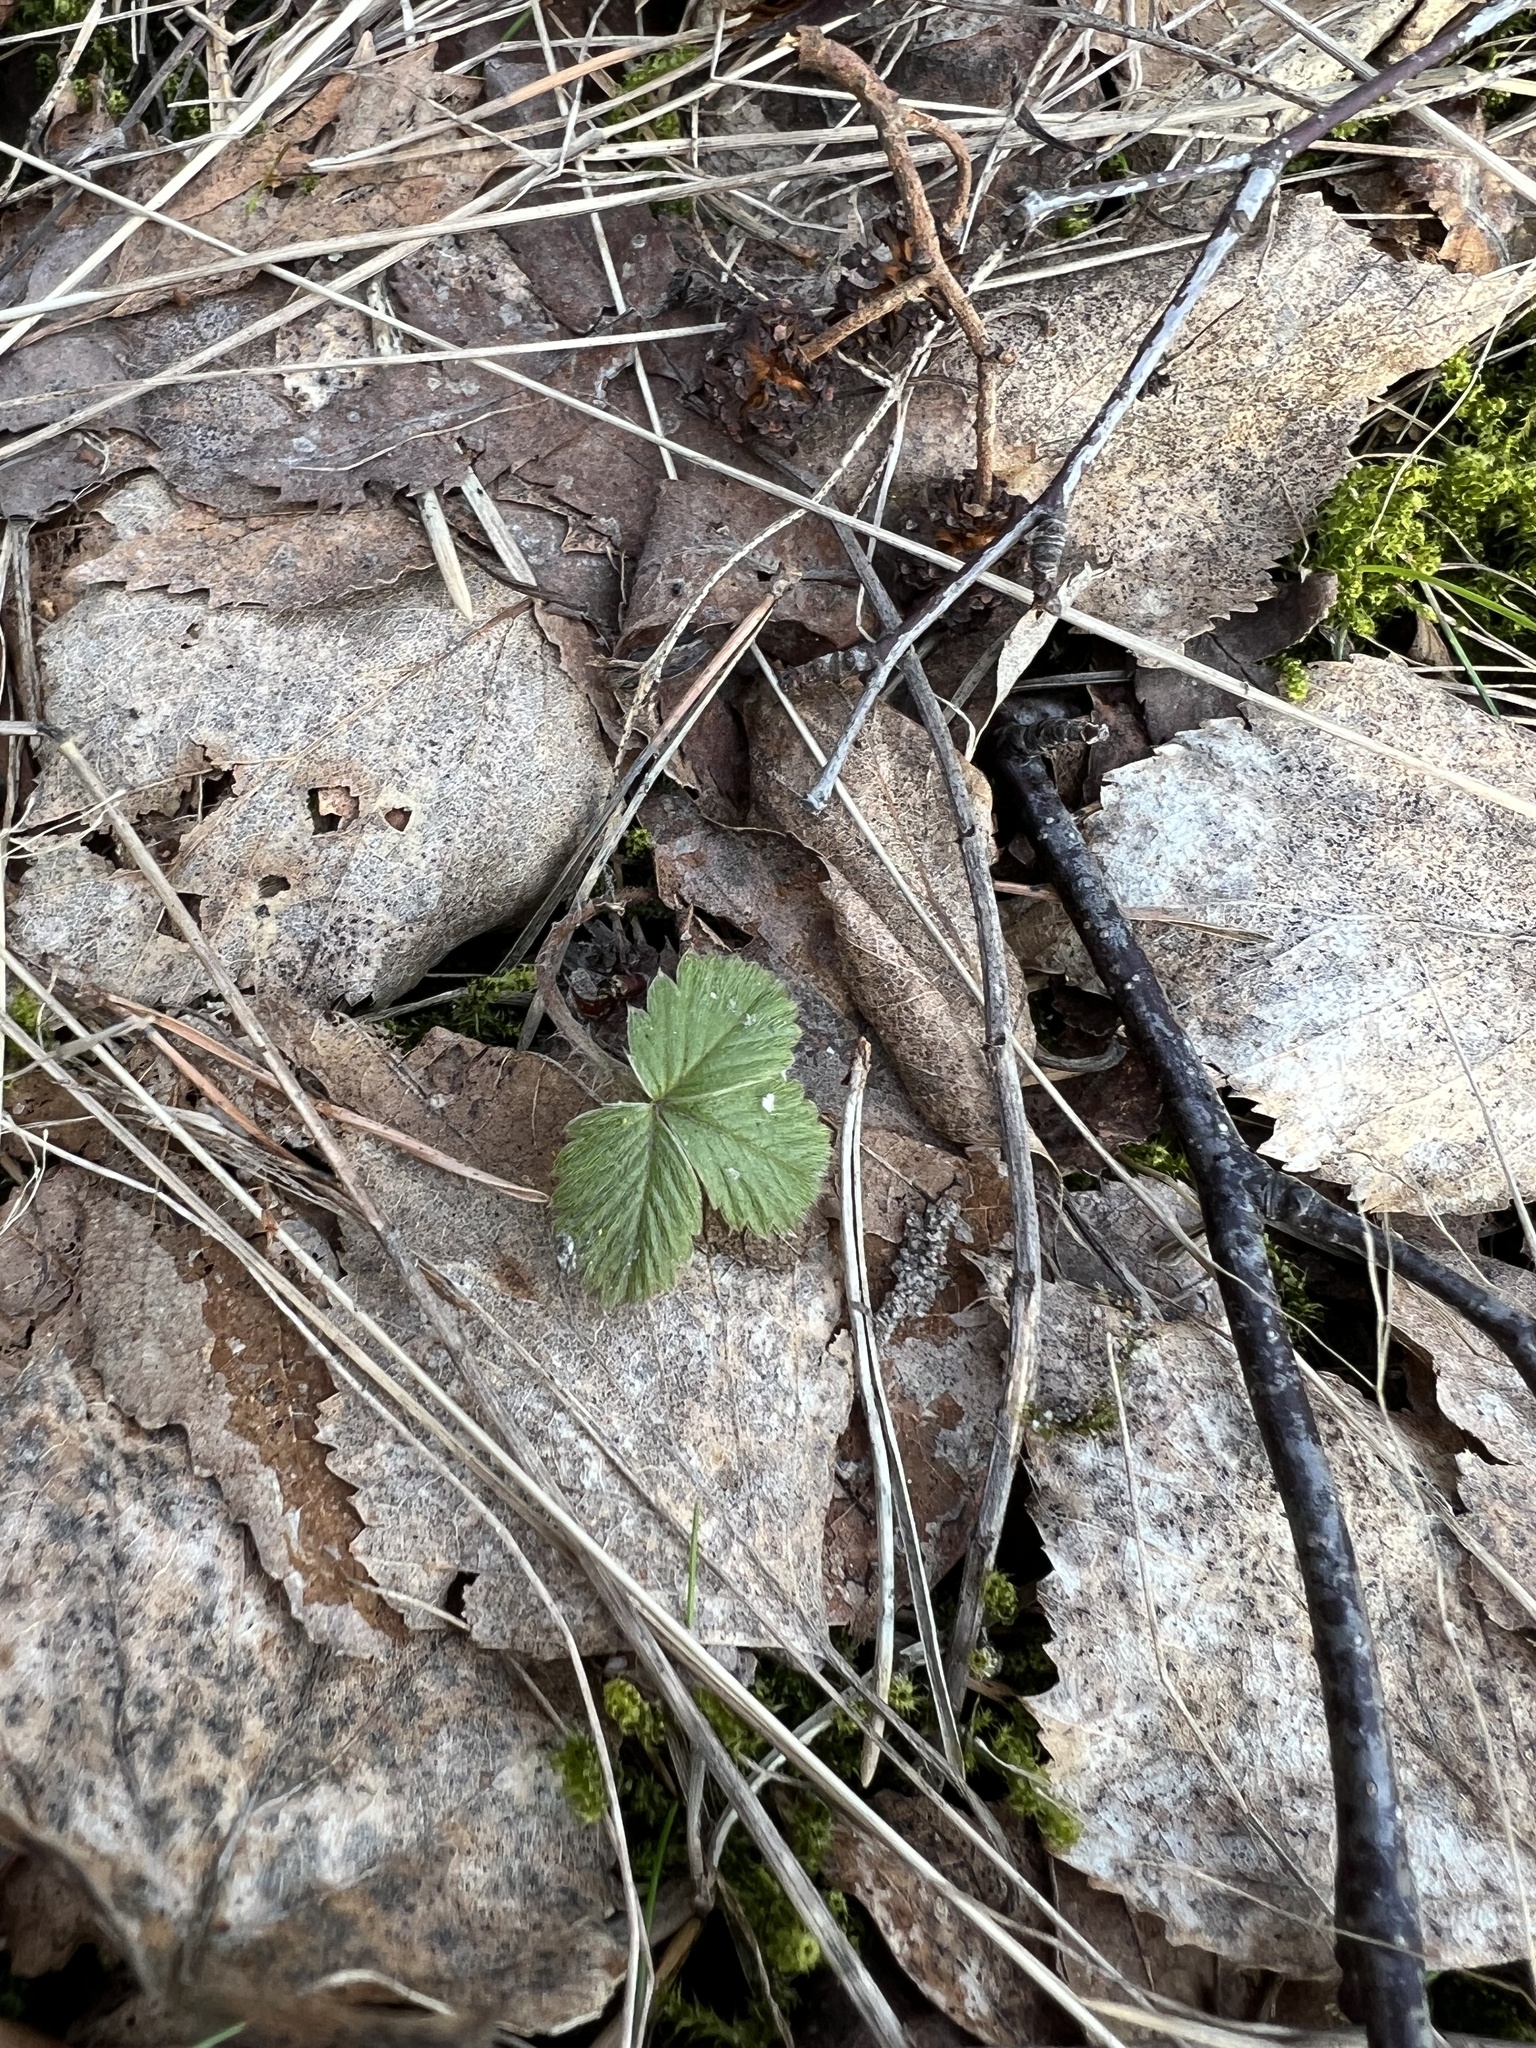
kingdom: Plantae
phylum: Tracheophyta
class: Magnoliopsida
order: Rosales
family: Rosaceae
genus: Fragaria
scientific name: Fragaria vesca
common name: Wild strawberry
